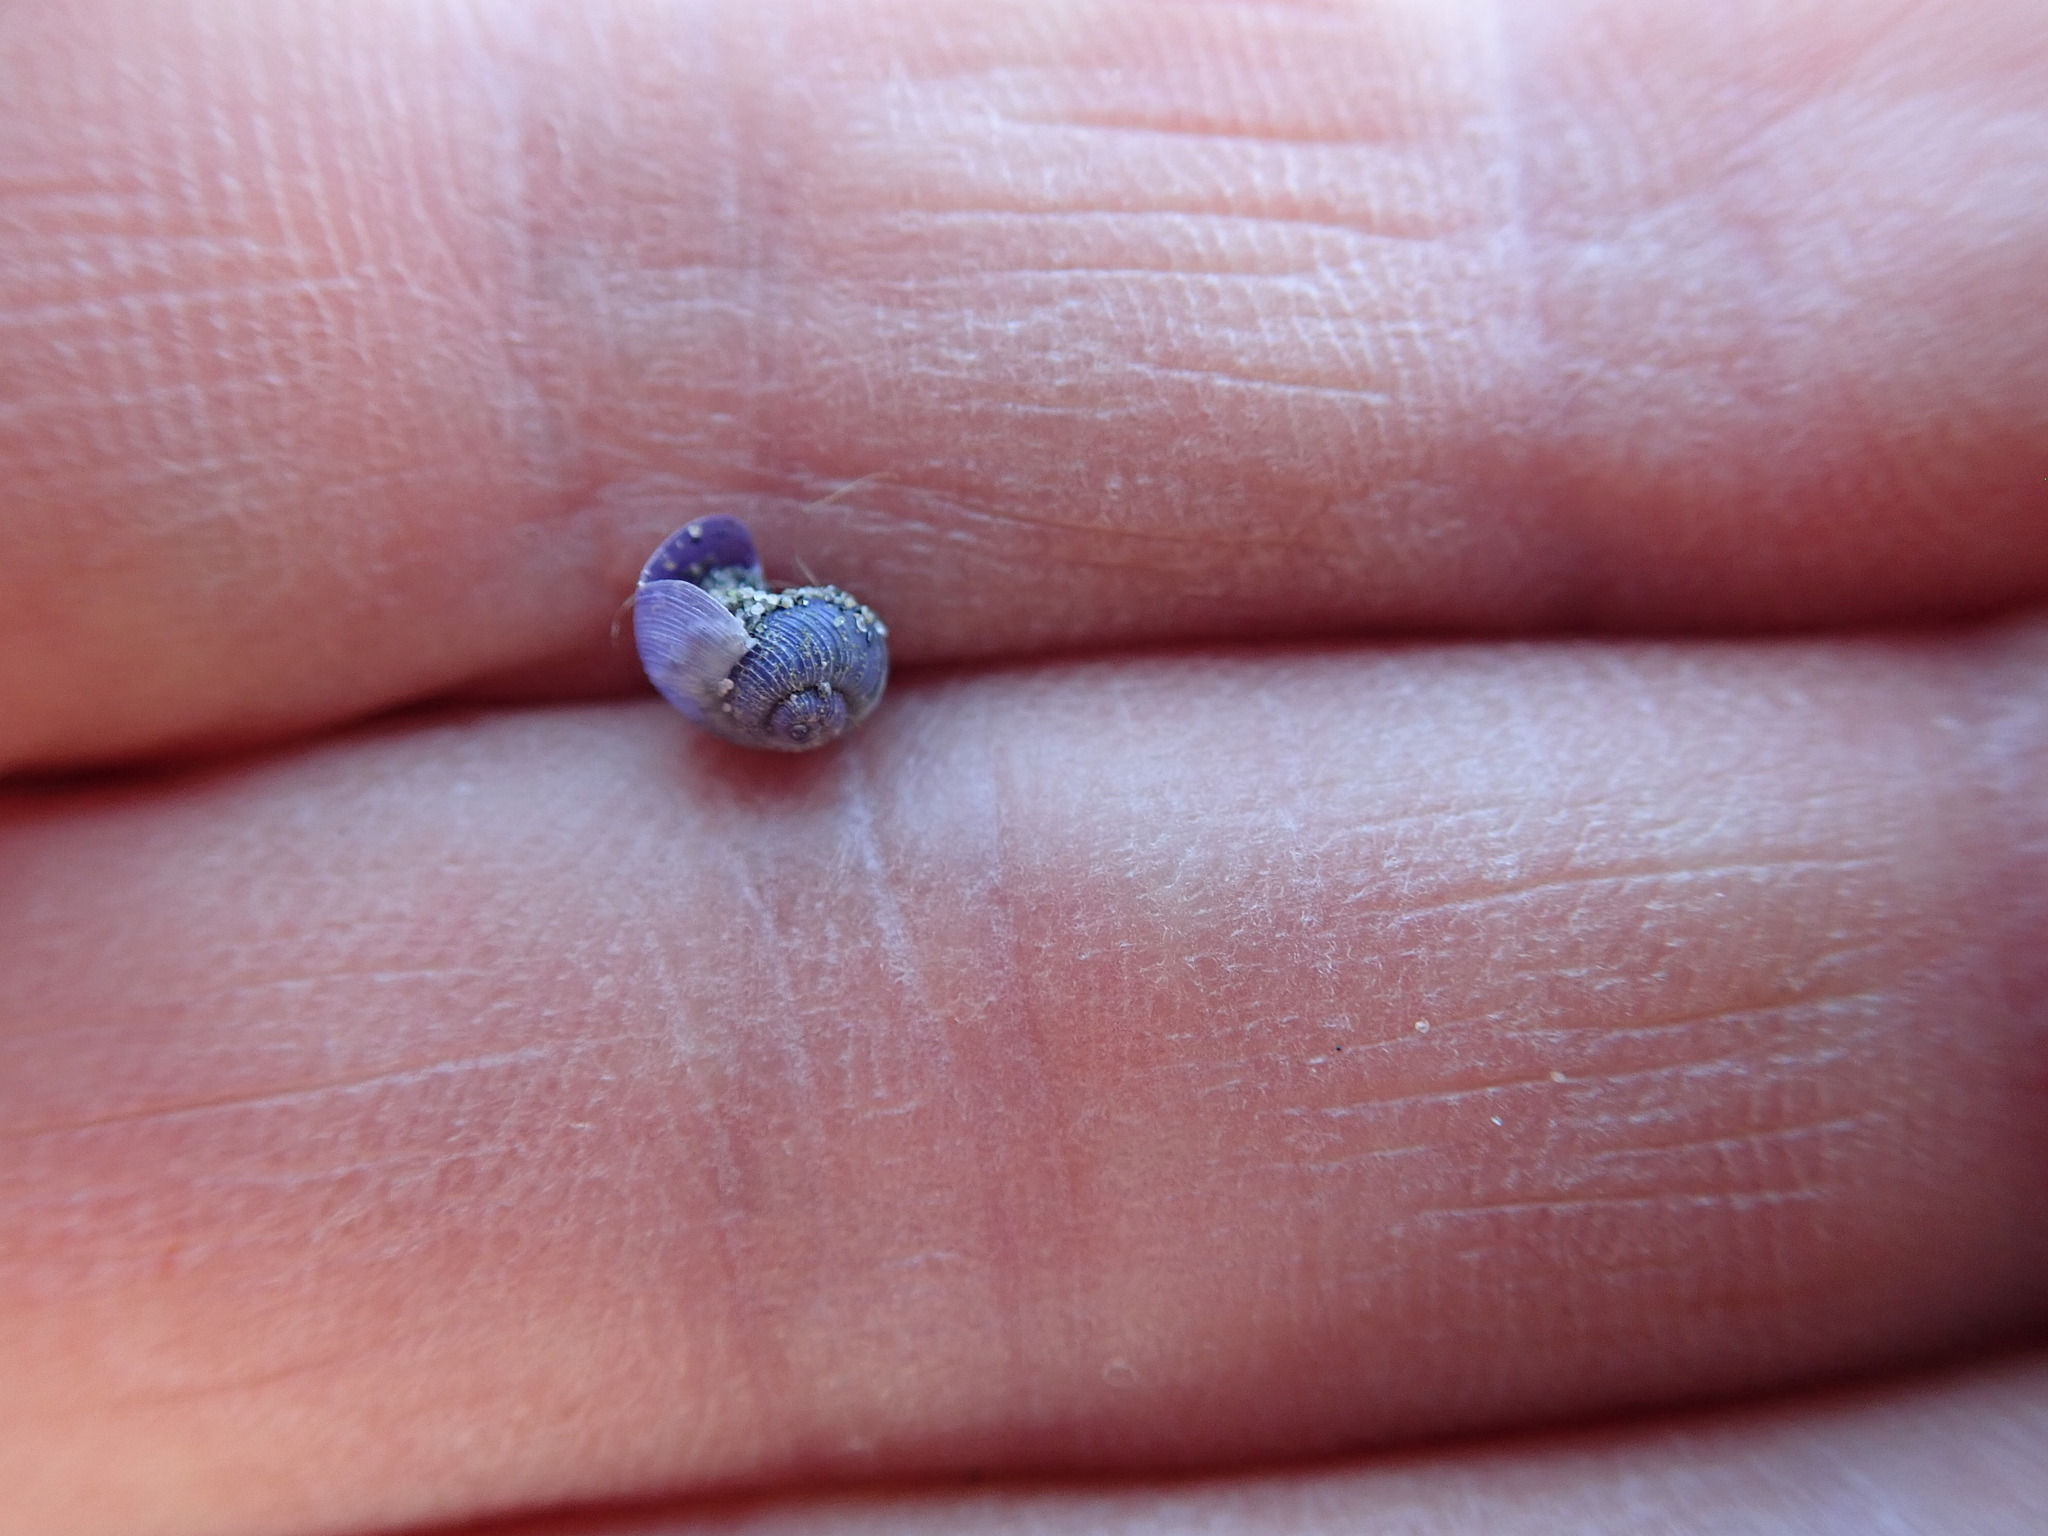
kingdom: Animalia
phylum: Mollusca
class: Gastropoda
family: Epitoniidae
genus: Janthina
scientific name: Janthina exigua
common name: Dwarf janthina
